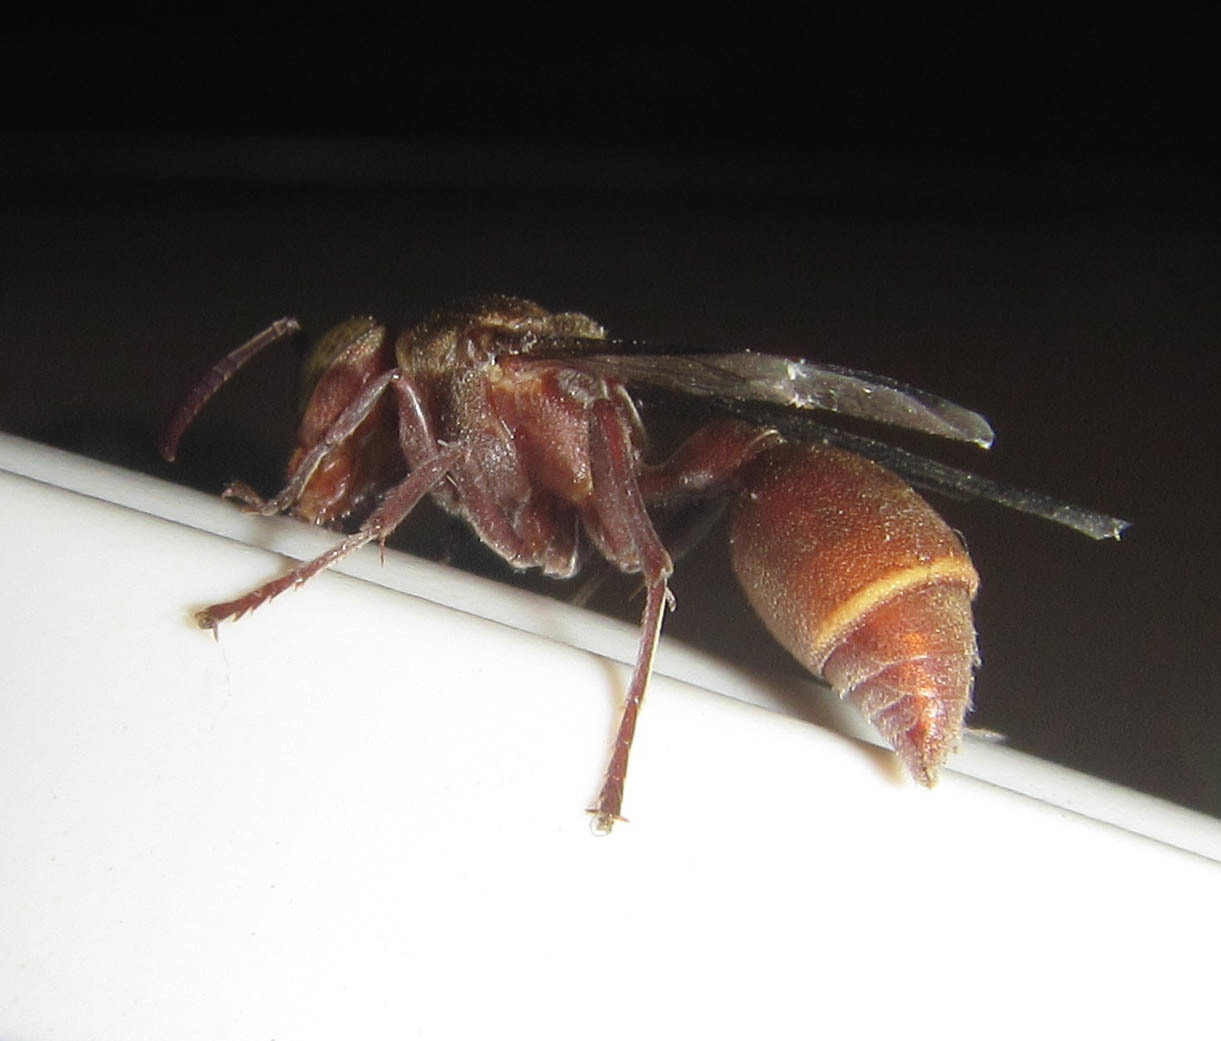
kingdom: Animalia
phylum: Arthropoda
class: Insecta
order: Hymenoptera
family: Vespidae
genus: Ropalidia
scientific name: Ropalidia distigma
